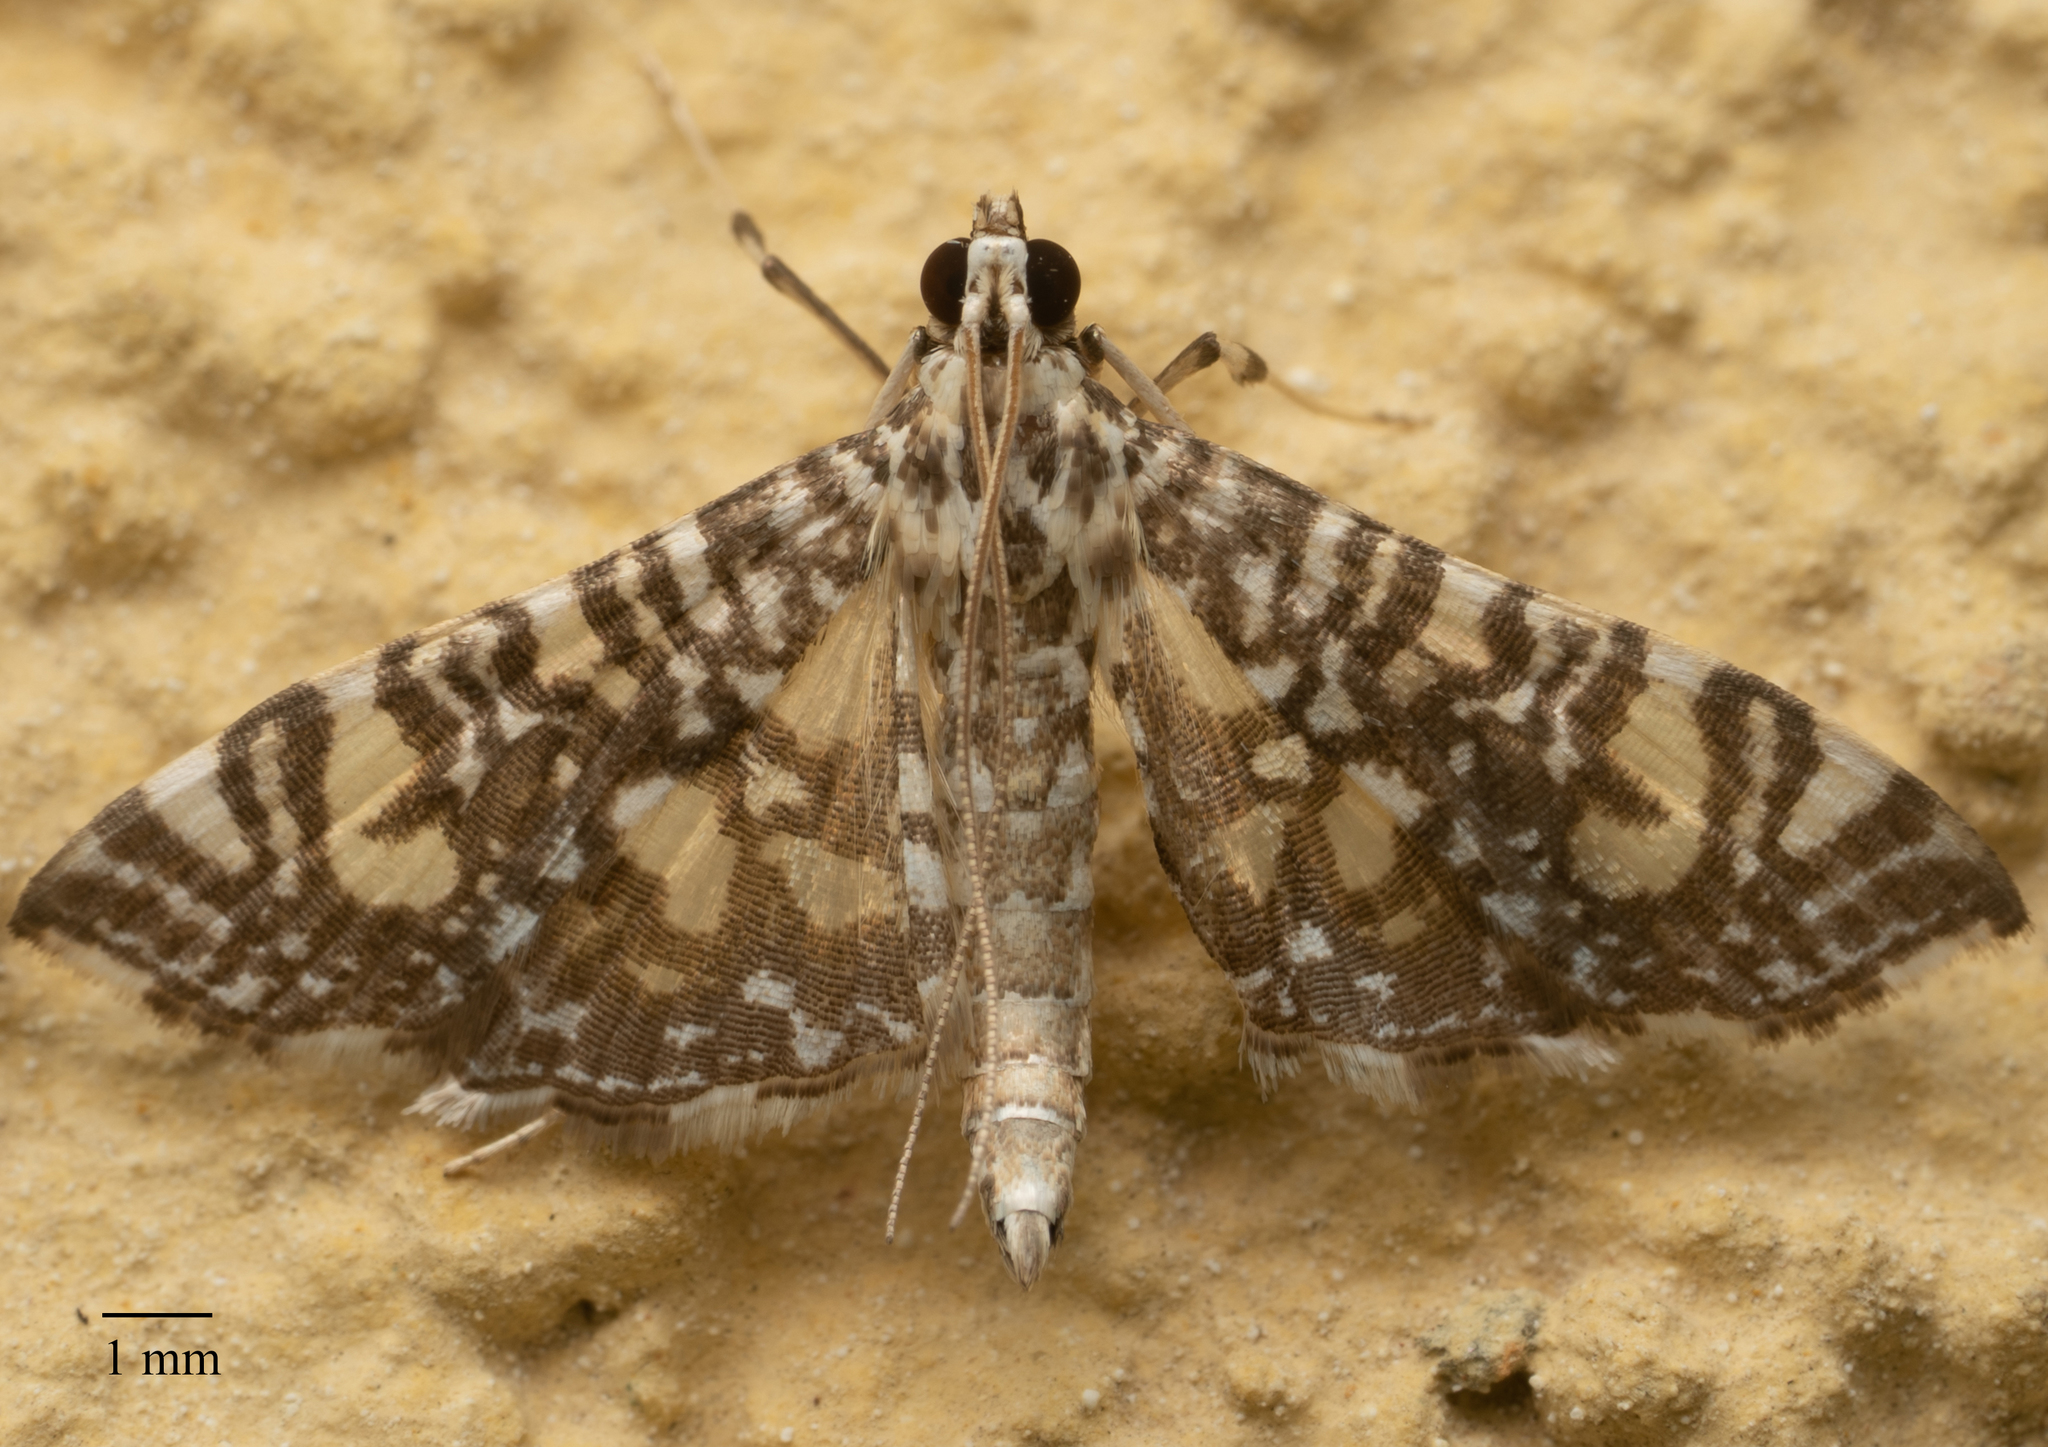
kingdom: Animalia
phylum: Arthropoda
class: Insecta
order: Lepidoptera
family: Crambidae
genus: Glyphodes
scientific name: Glyphodes onychinalis
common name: Swan plant moth
